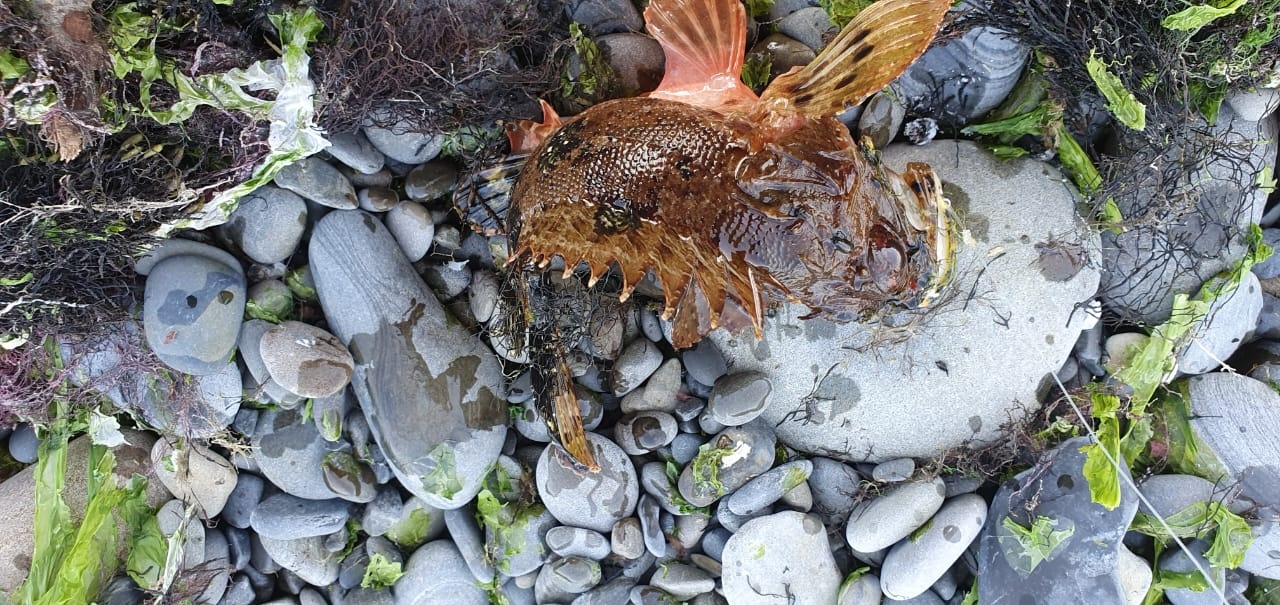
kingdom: Animalia
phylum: Chordata
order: Scorpaeniformes
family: Scorpaenidae
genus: Scorpaena
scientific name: Scorpaena porcus
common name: Black scorpionfish
